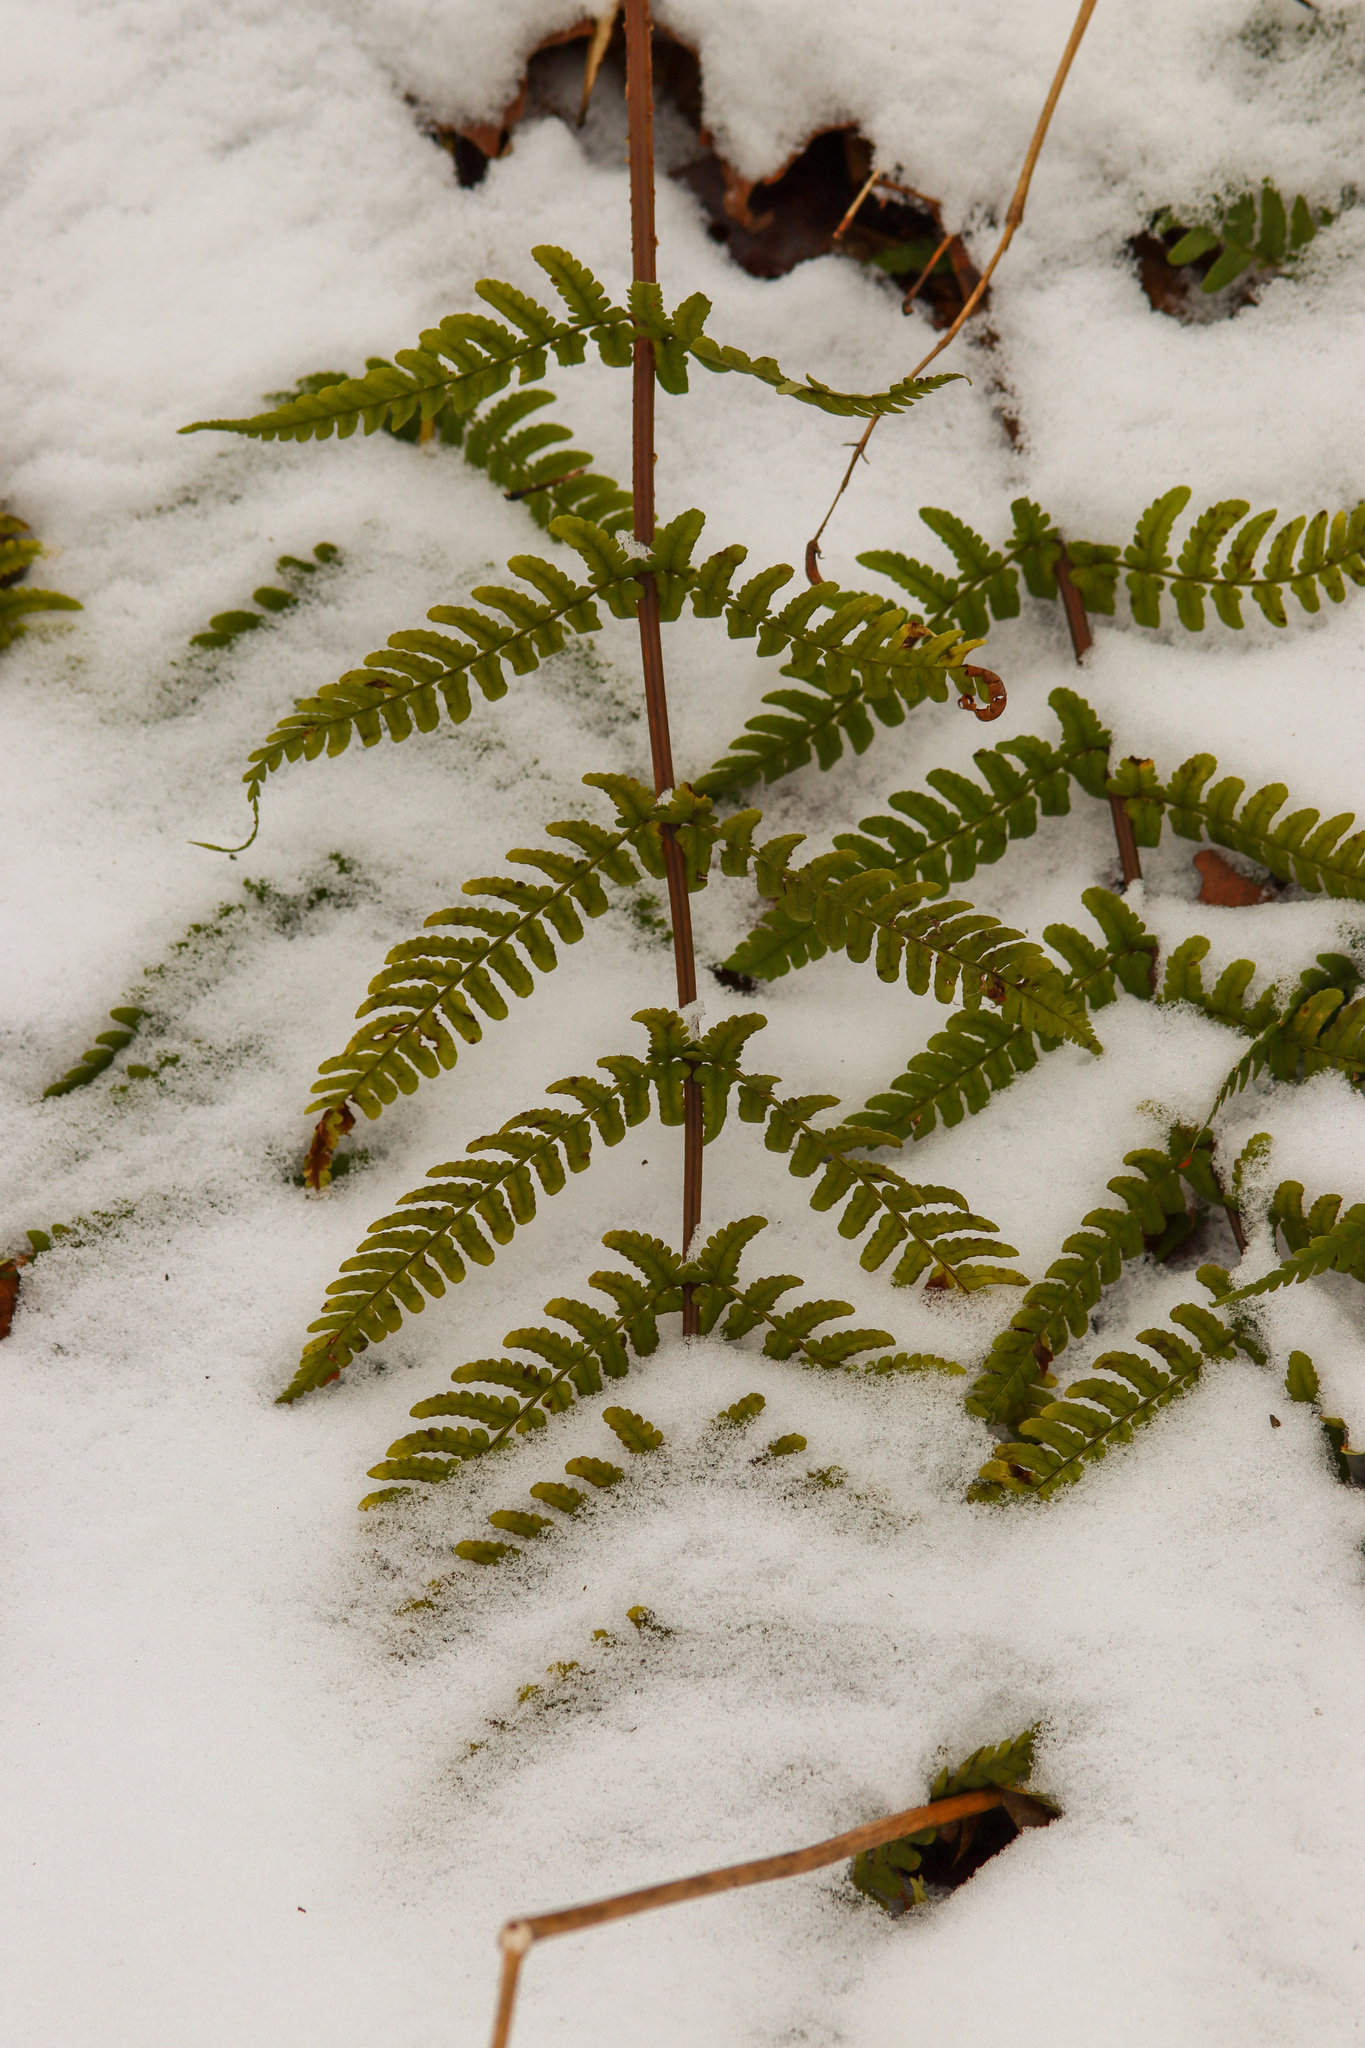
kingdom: Plantae
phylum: Tracheophyta
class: Polypodiopsida
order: Polypodiales
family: Dryopteridaceae
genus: Dryopteris
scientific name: Dryopteris marginalis
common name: Marginal wood fern
